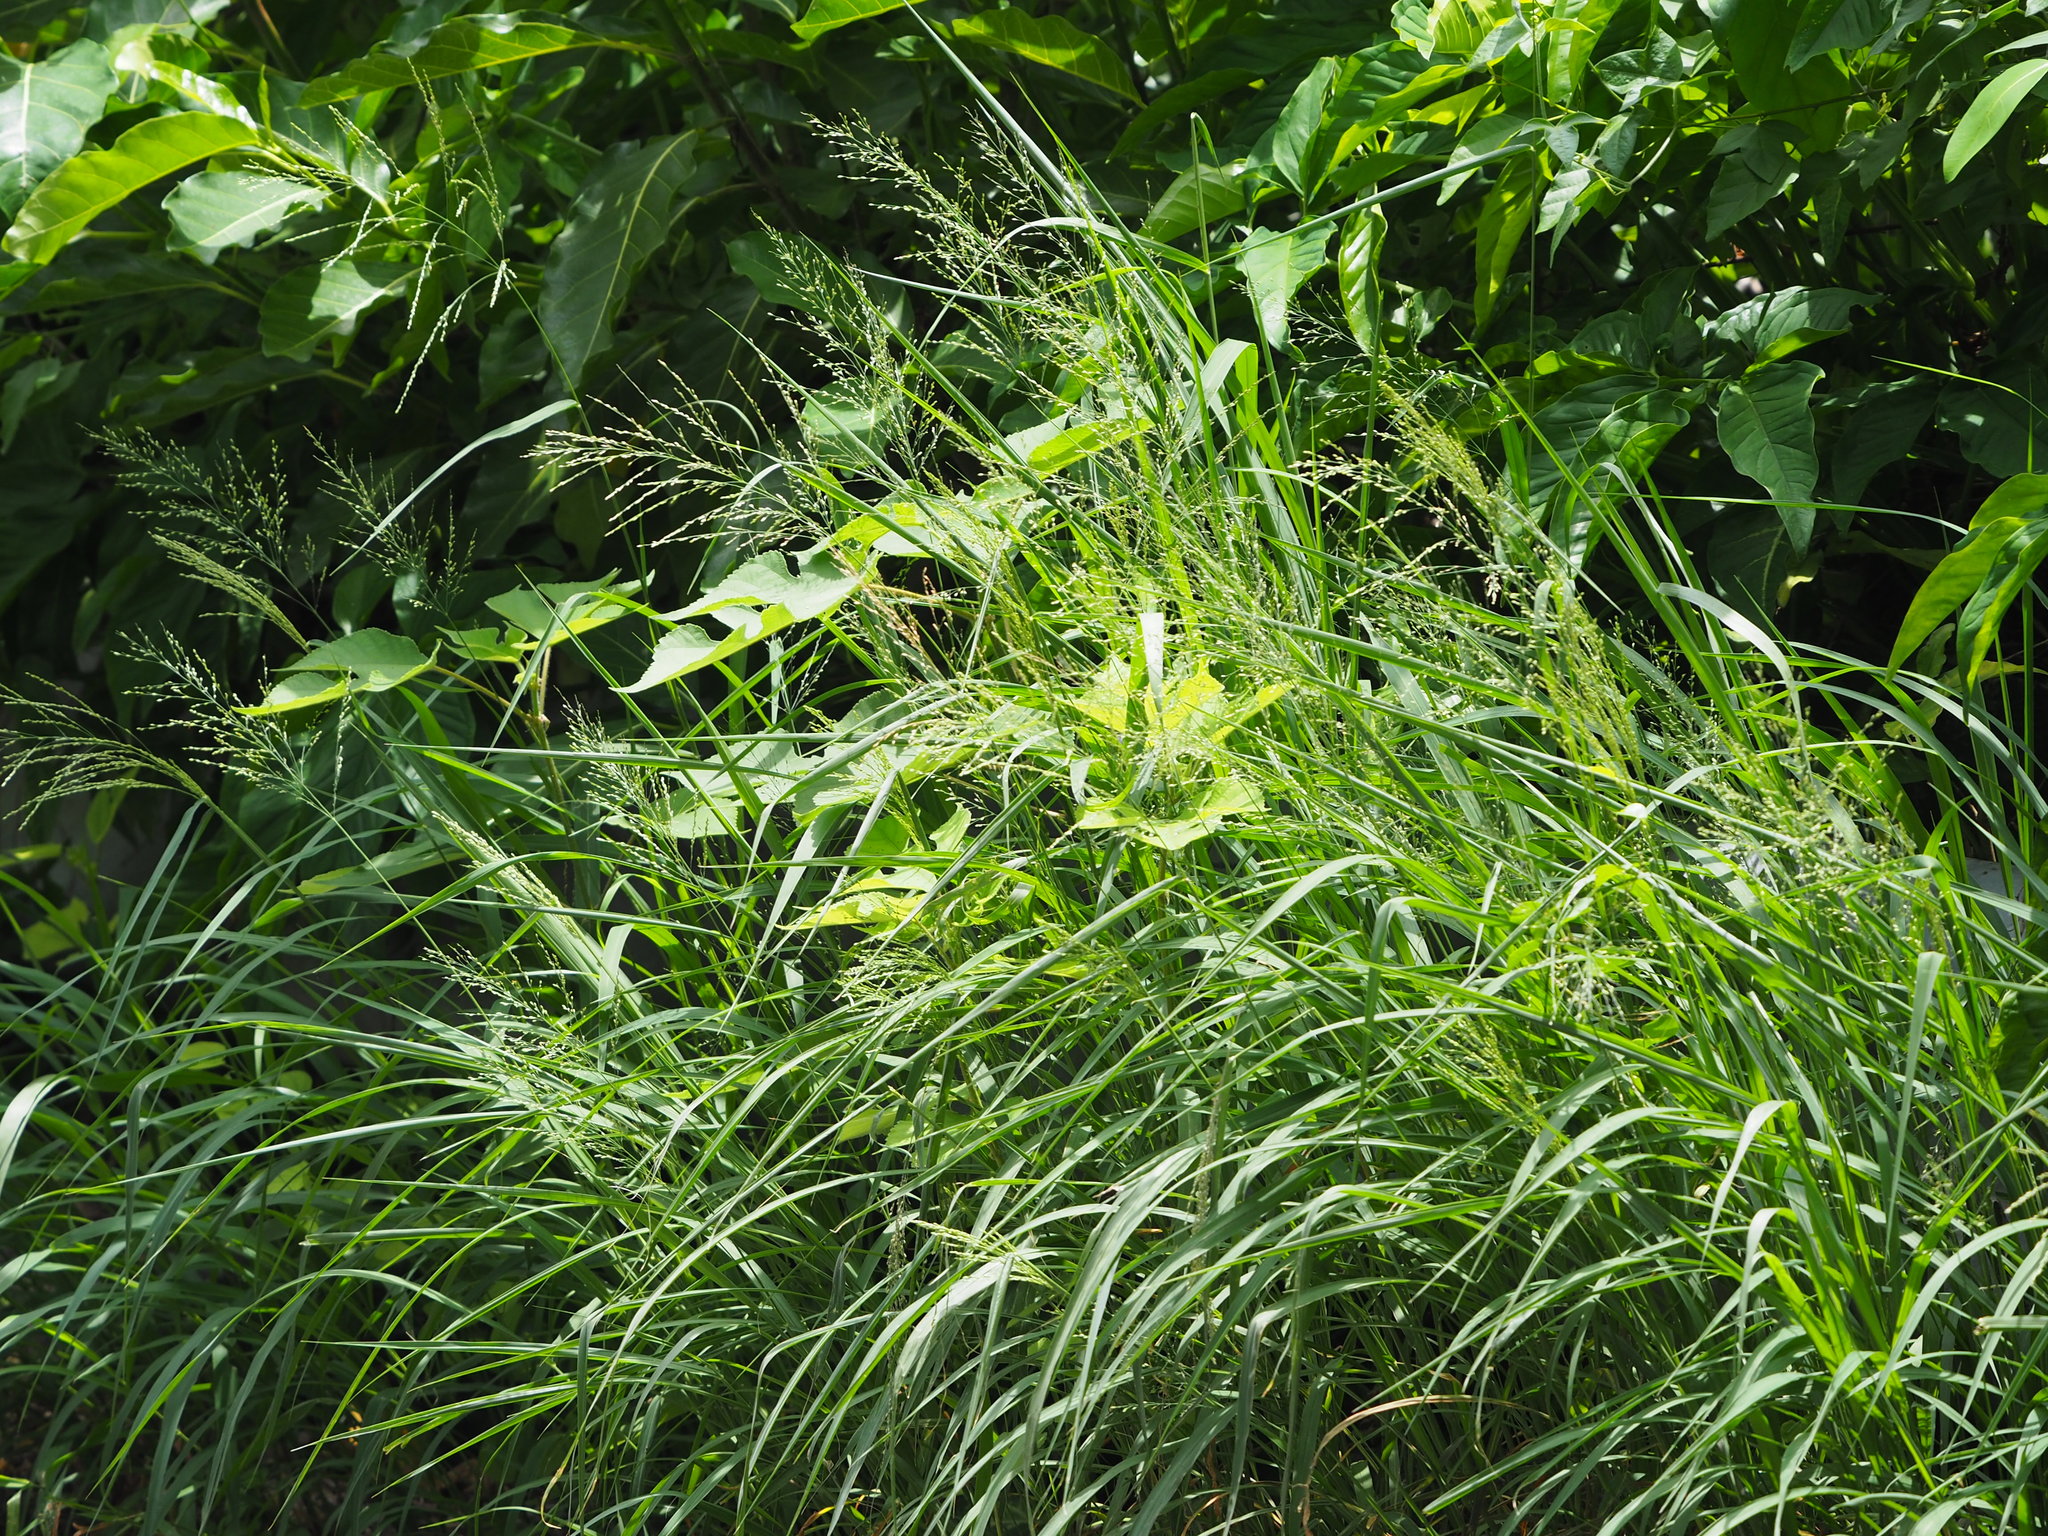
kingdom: Plantae
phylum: Tracheophyta
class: Liliopsida
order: Poales
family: Poaceae
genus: Megathyrsus
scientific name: Megathyrsus maximus
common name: Guineagrass
